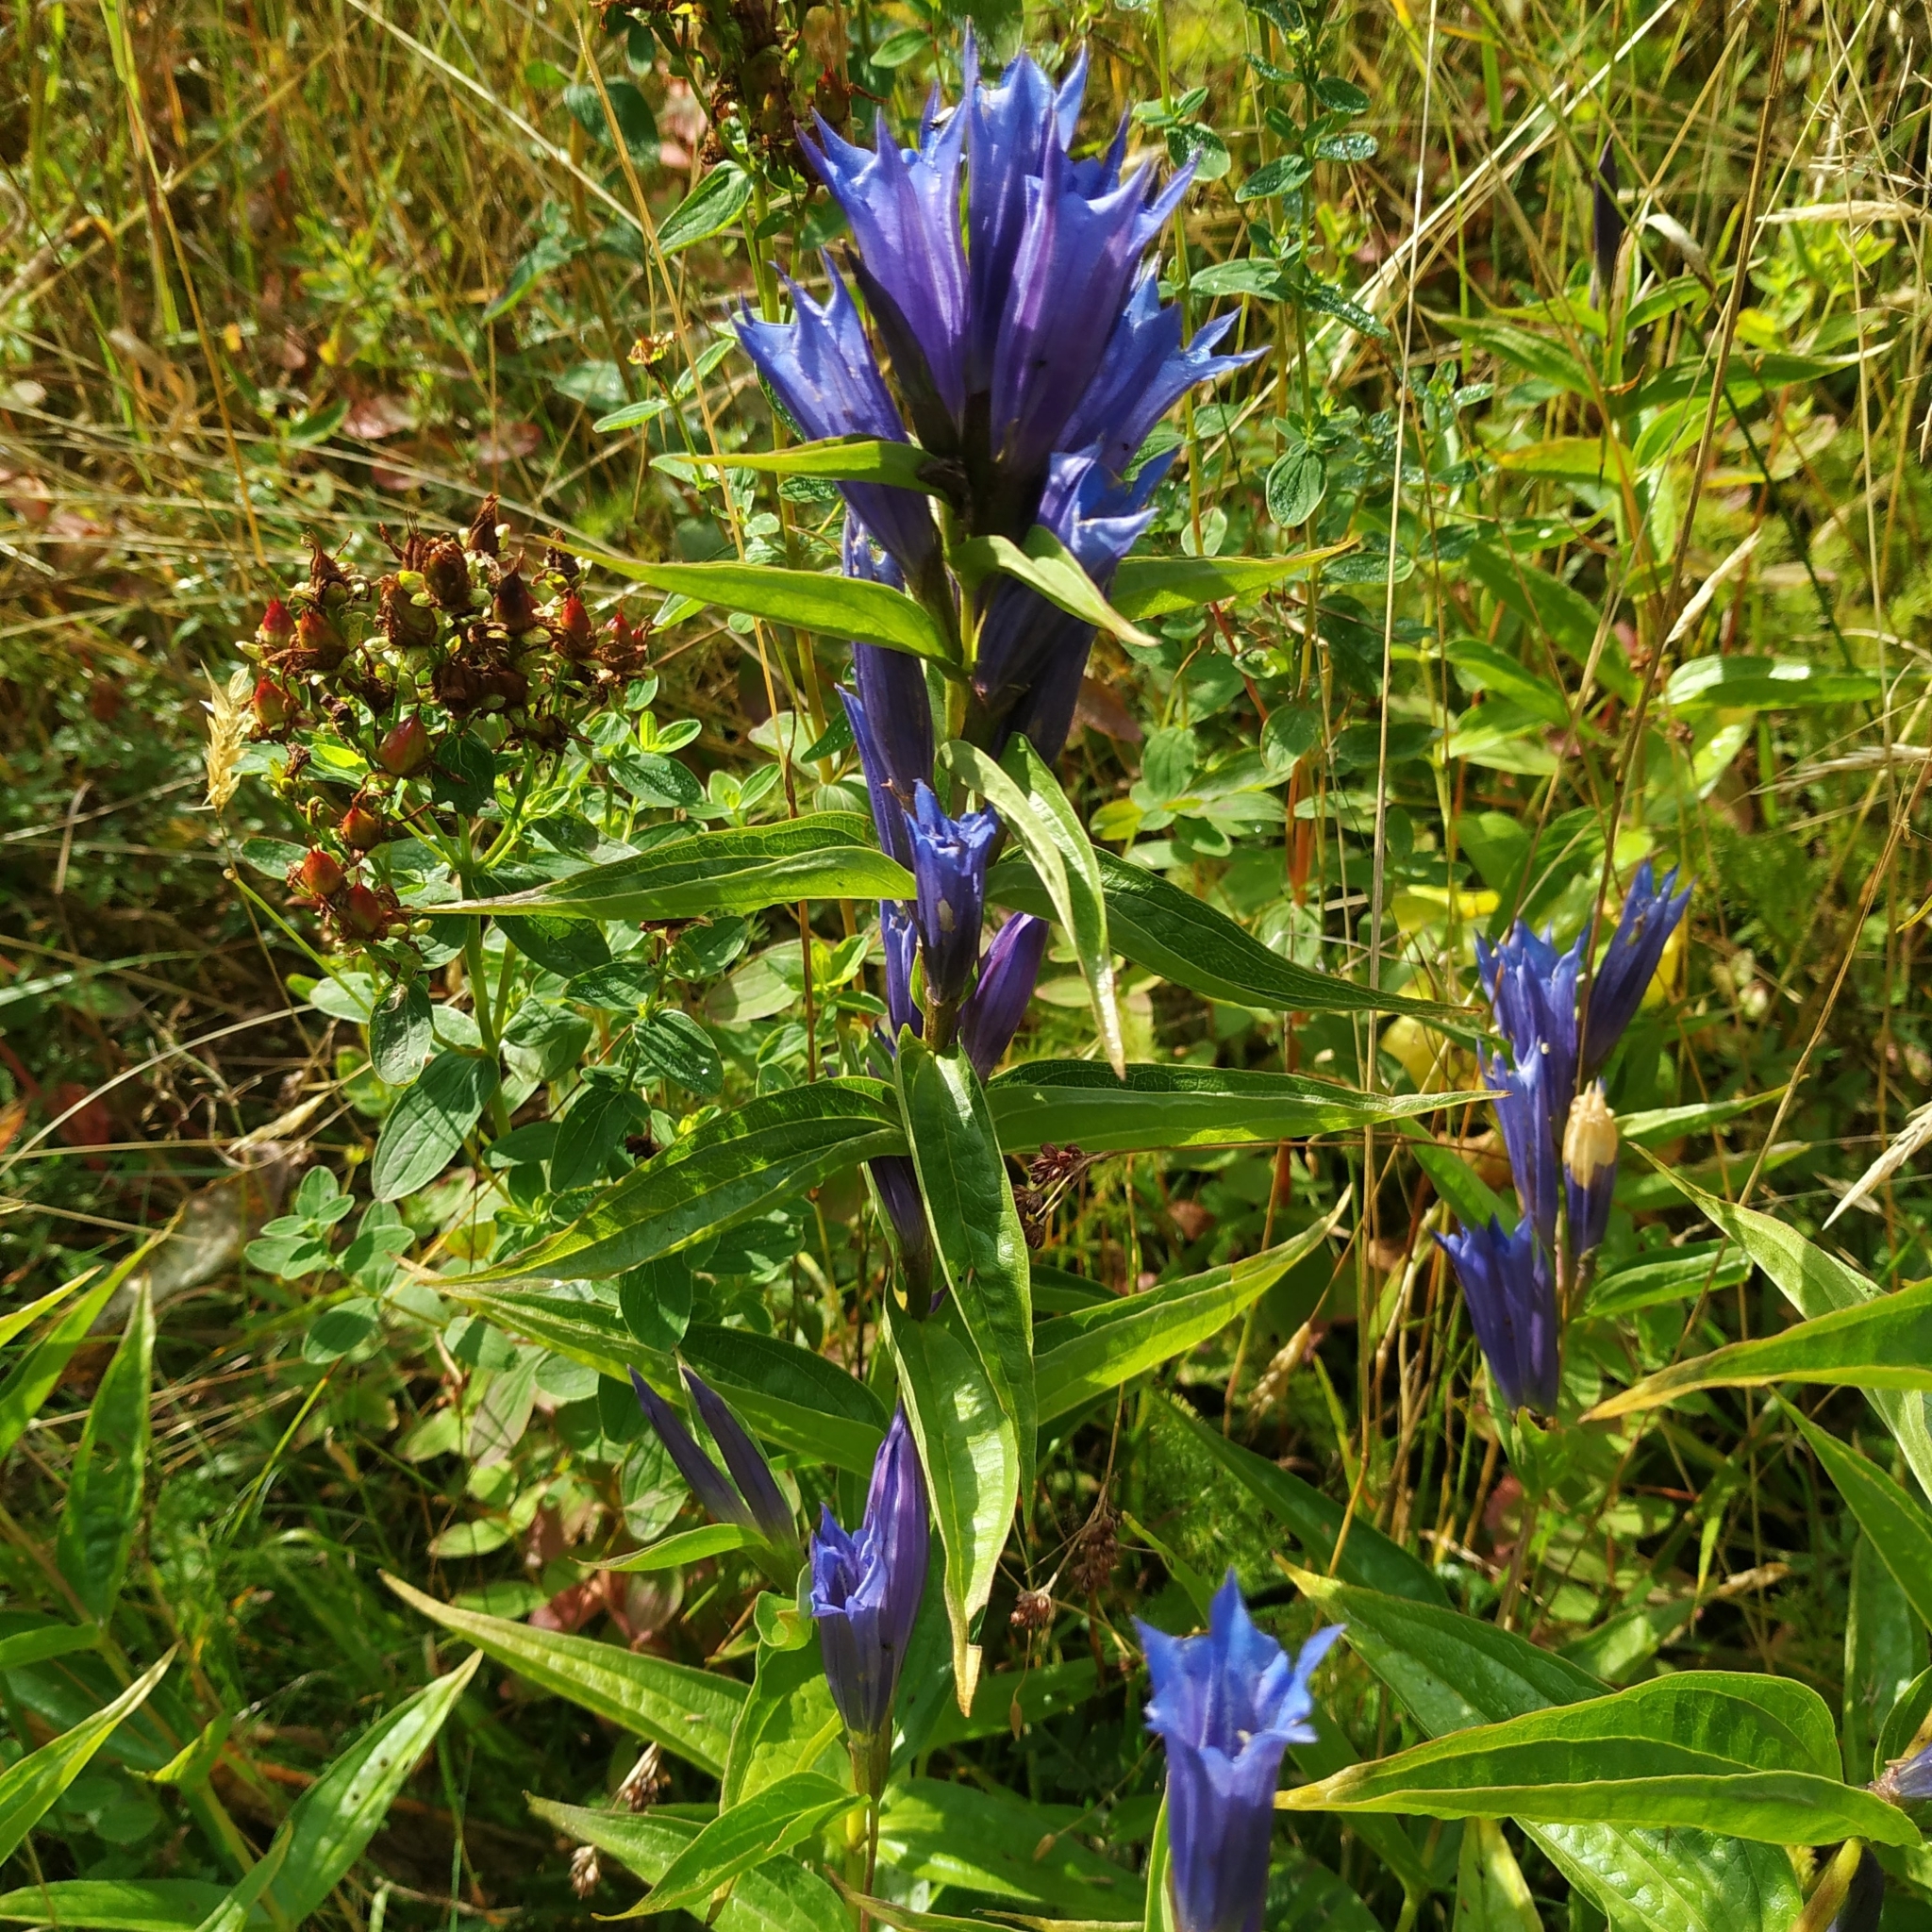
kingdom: Plantae
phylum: Tracheophyta
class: Magnoliopsida
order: Gentianales
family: Gentianaceae
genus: Gentiana
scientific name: Gentiana asclepiadea
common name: Willow gentian
